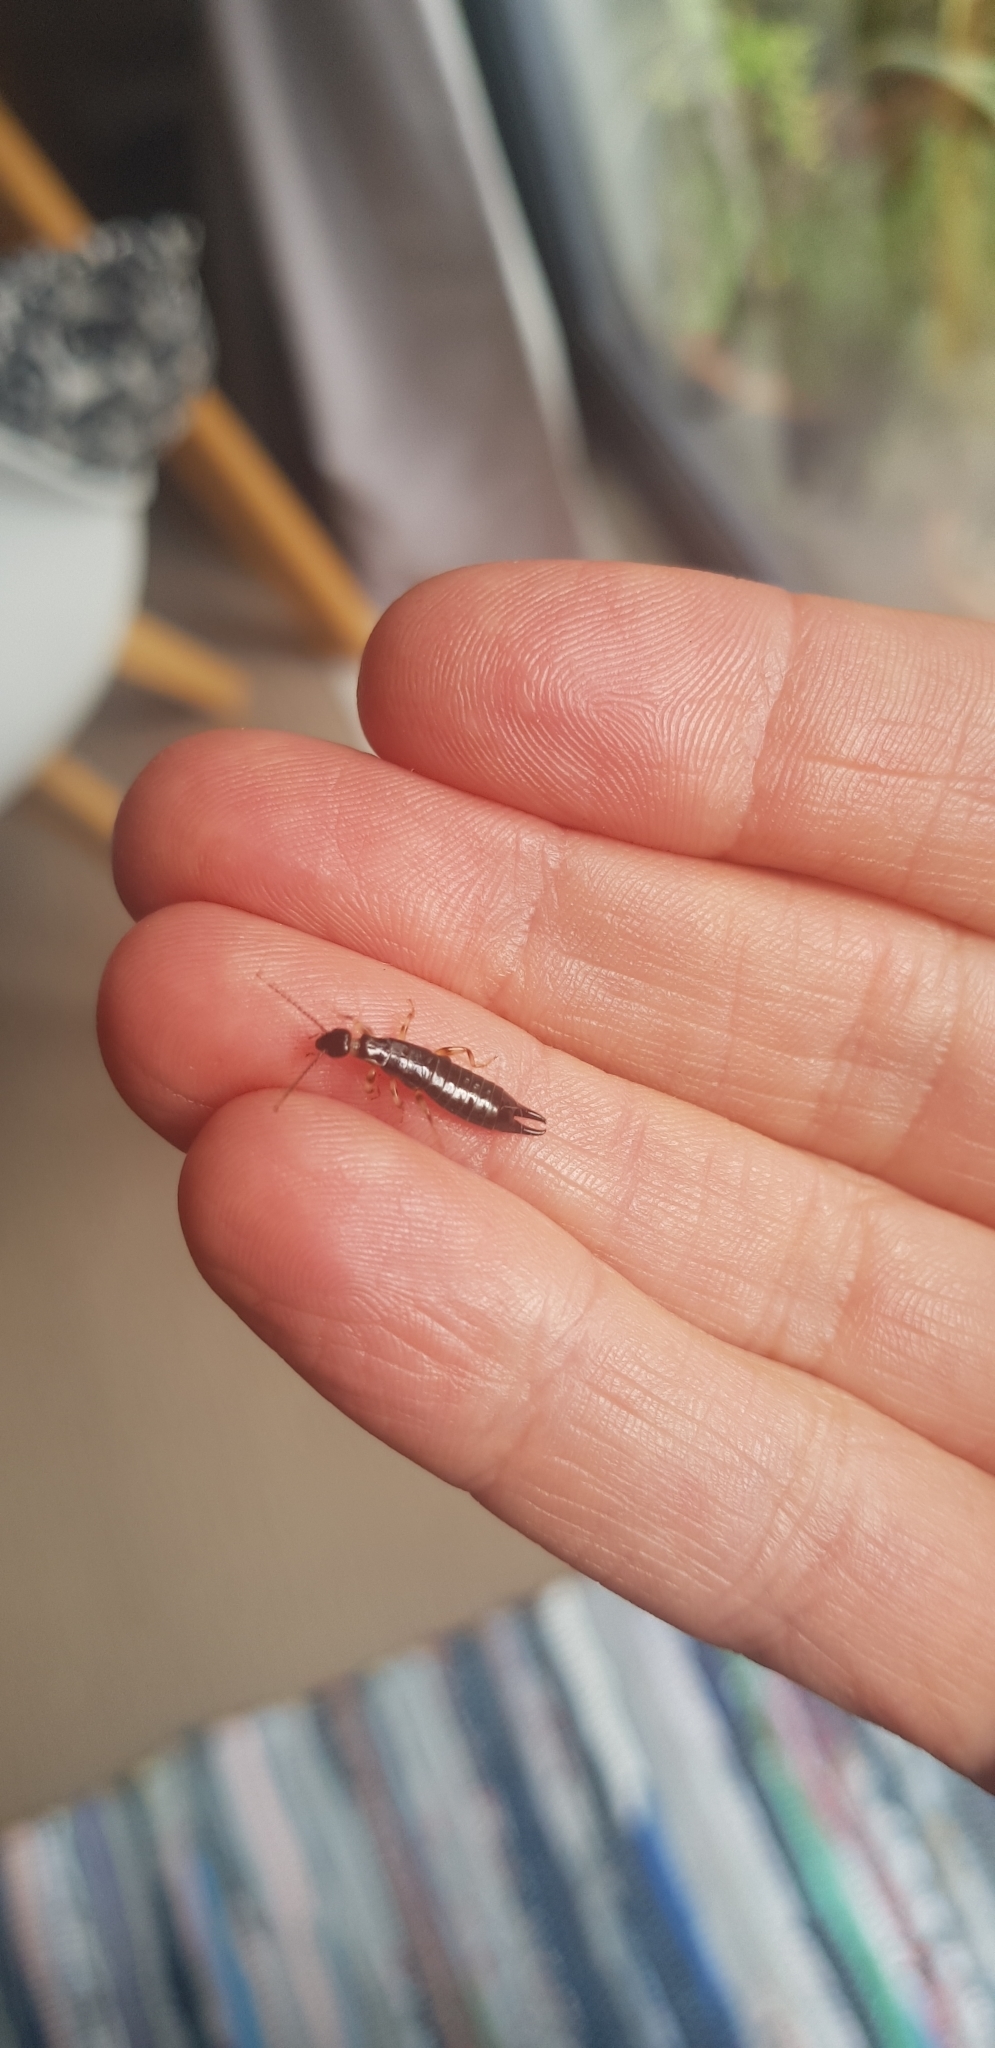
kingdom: Animalia
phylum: Arthropoda
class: Insecta
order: Dermaptera
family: Anisolabididae
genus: Euborellia
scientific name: Euborellia annulipes
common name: Ringlegged earwig
